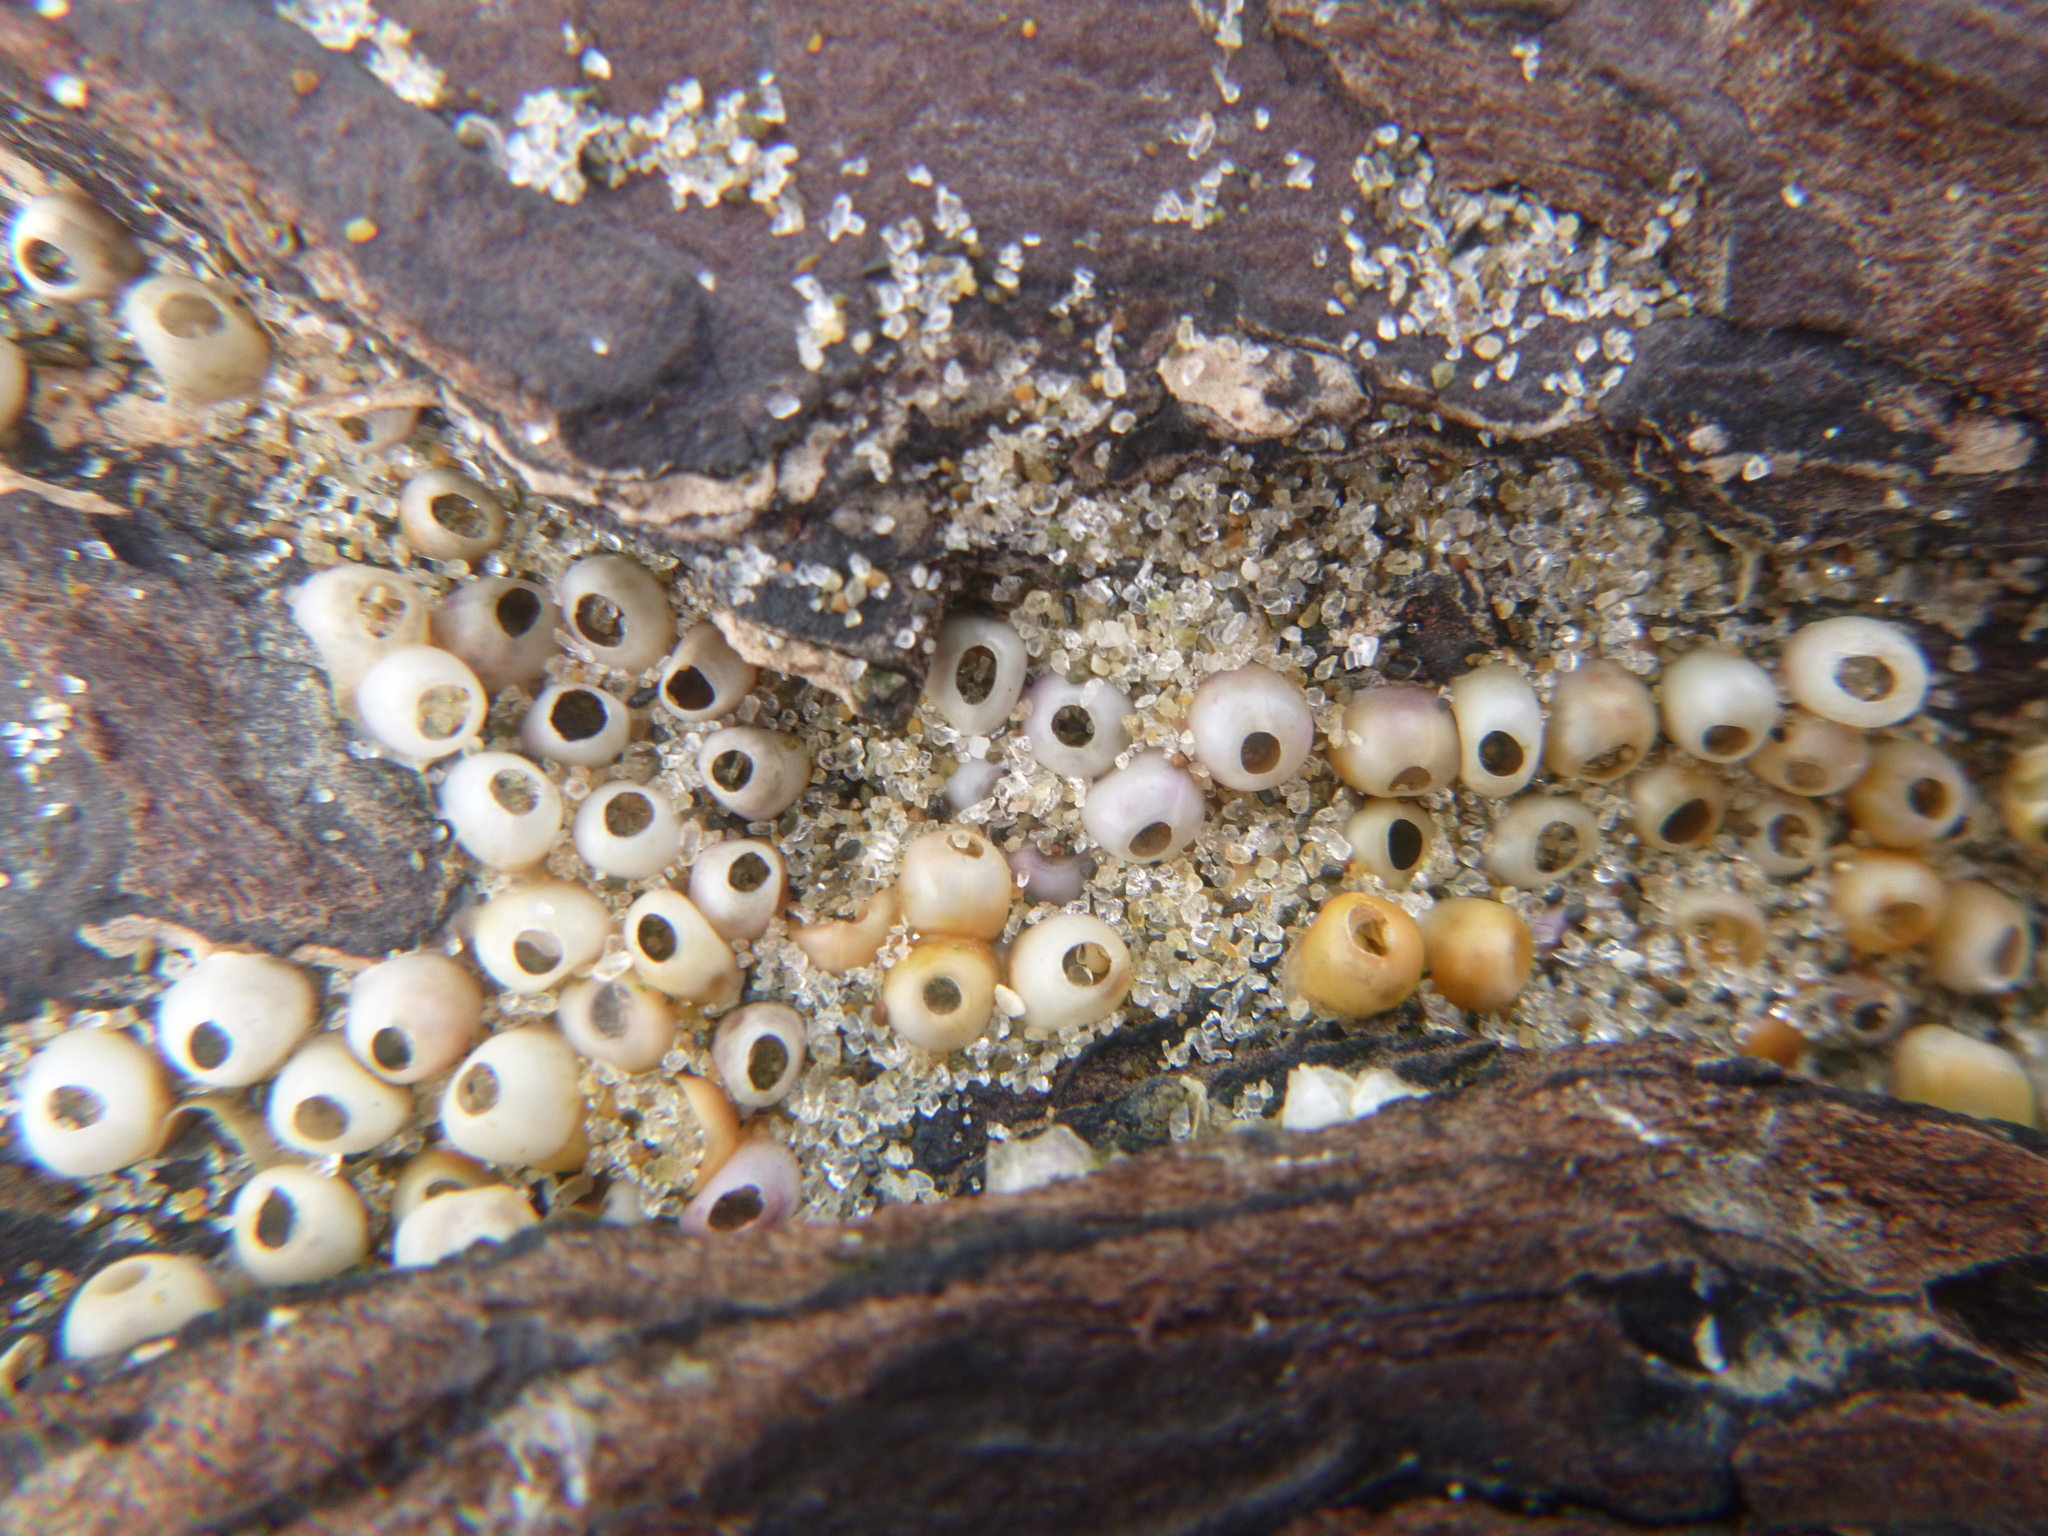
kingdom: Animalia
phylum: Mollusca
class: Gastropoda
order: Neogastropoda
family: Muricidae
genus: Haustrum
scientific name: Haustrum scobina
